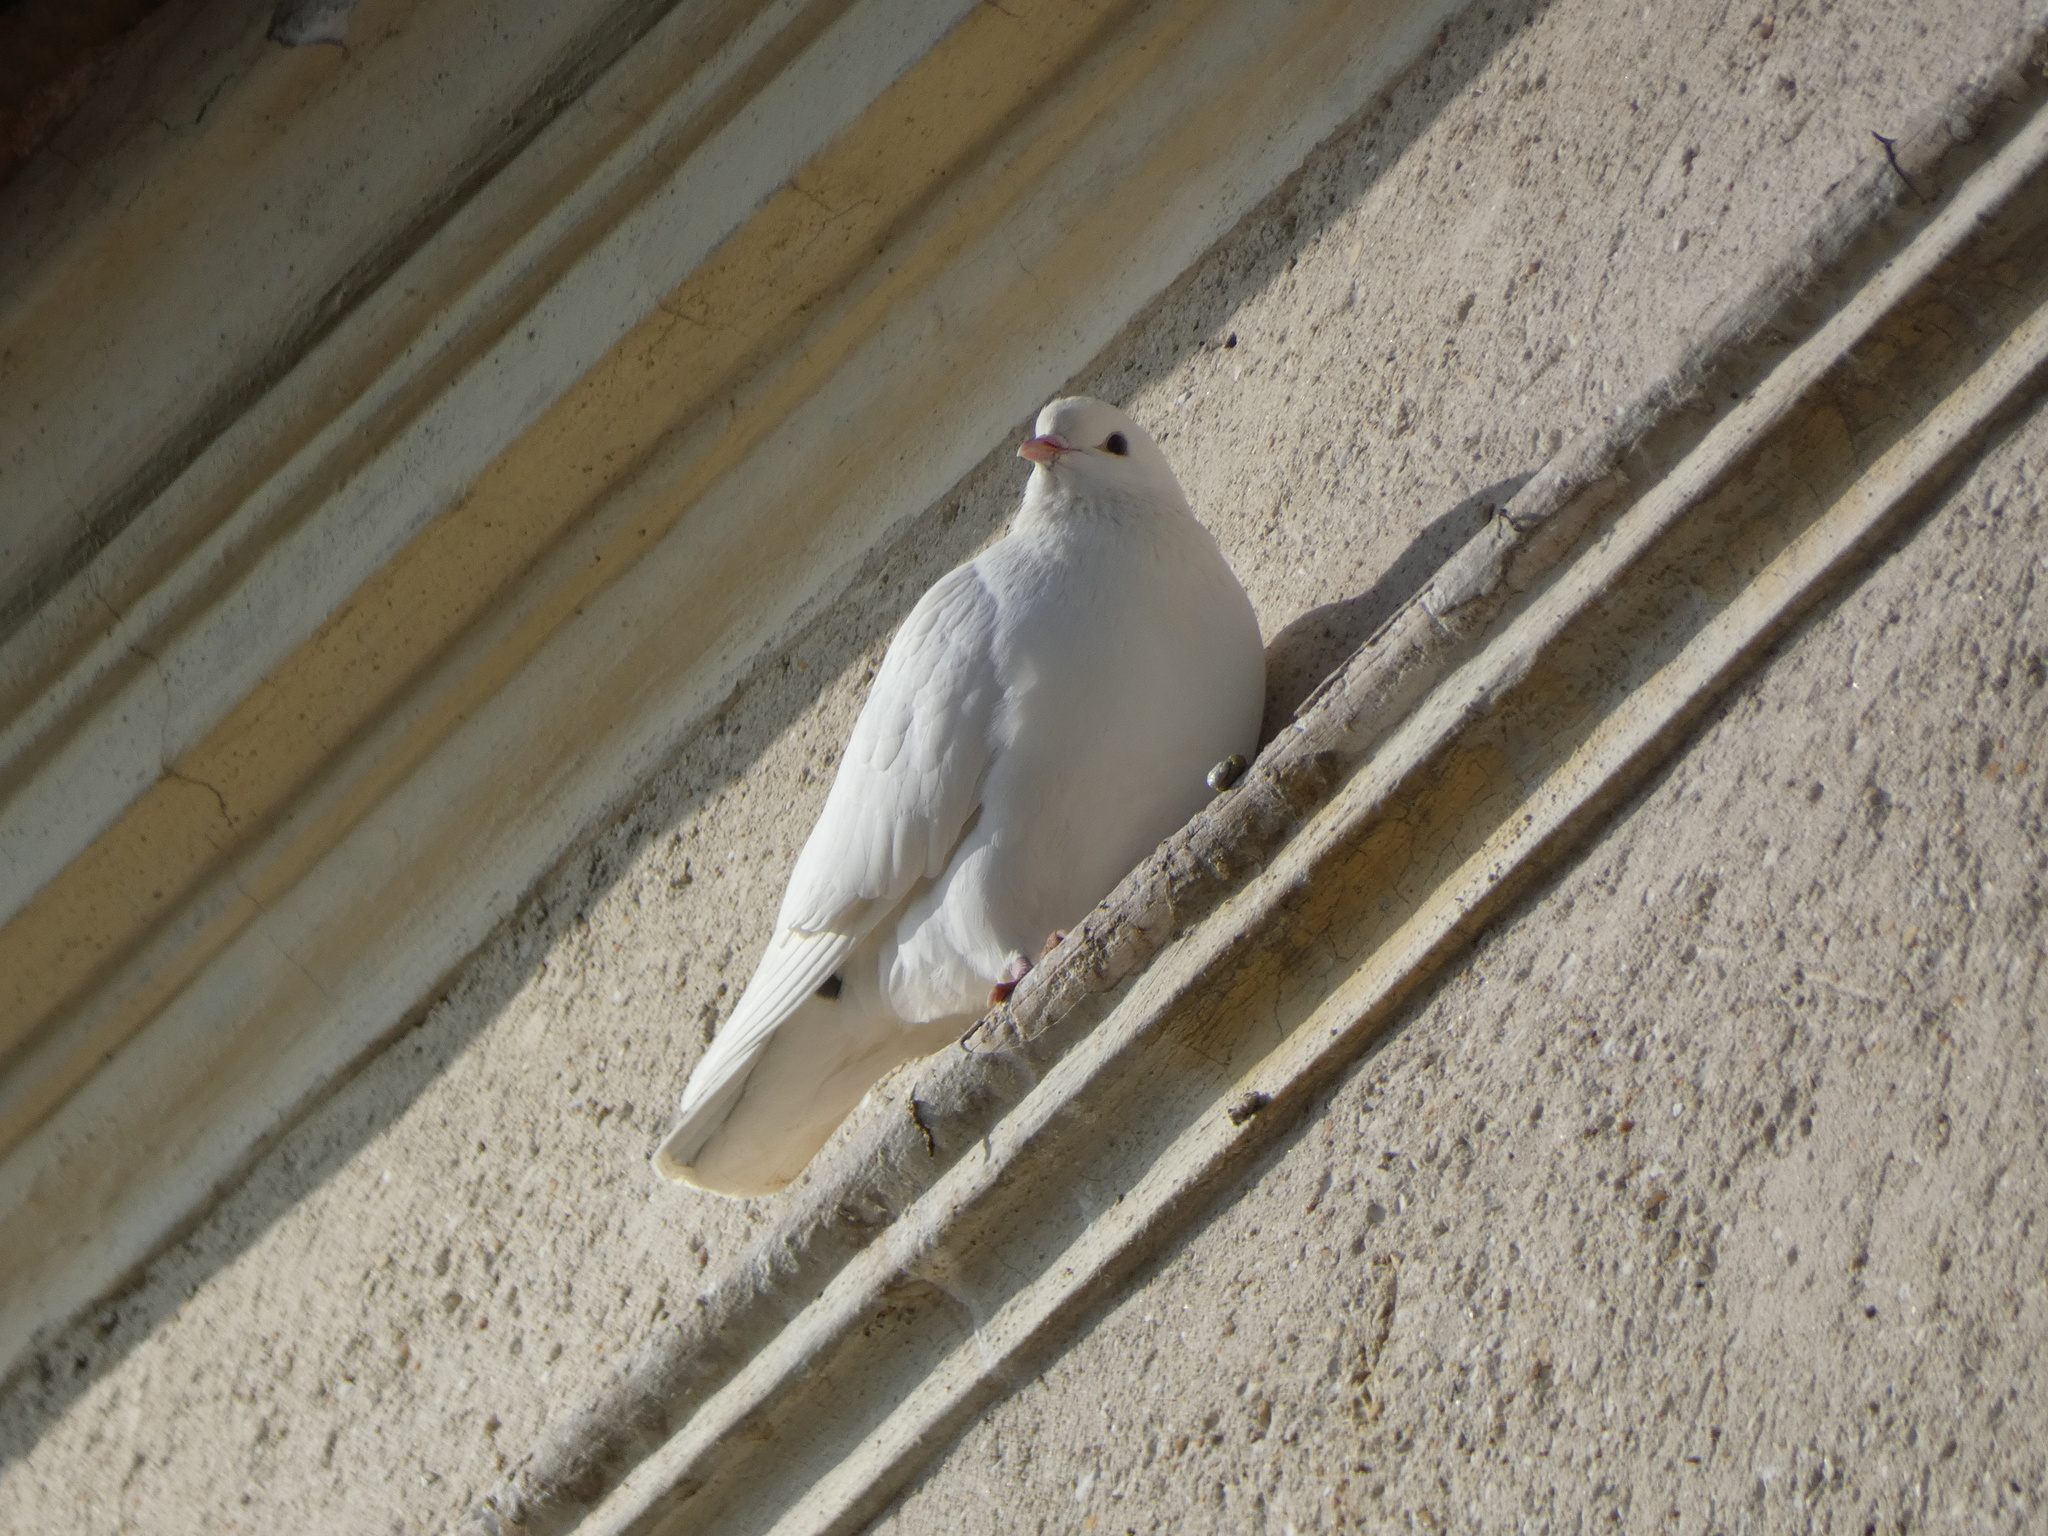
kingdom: Animalia
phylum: Chordata
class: Aves
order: Columbiformes
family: Columbidae
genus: Columba
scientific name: Columba livia
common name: Rock pigeon
